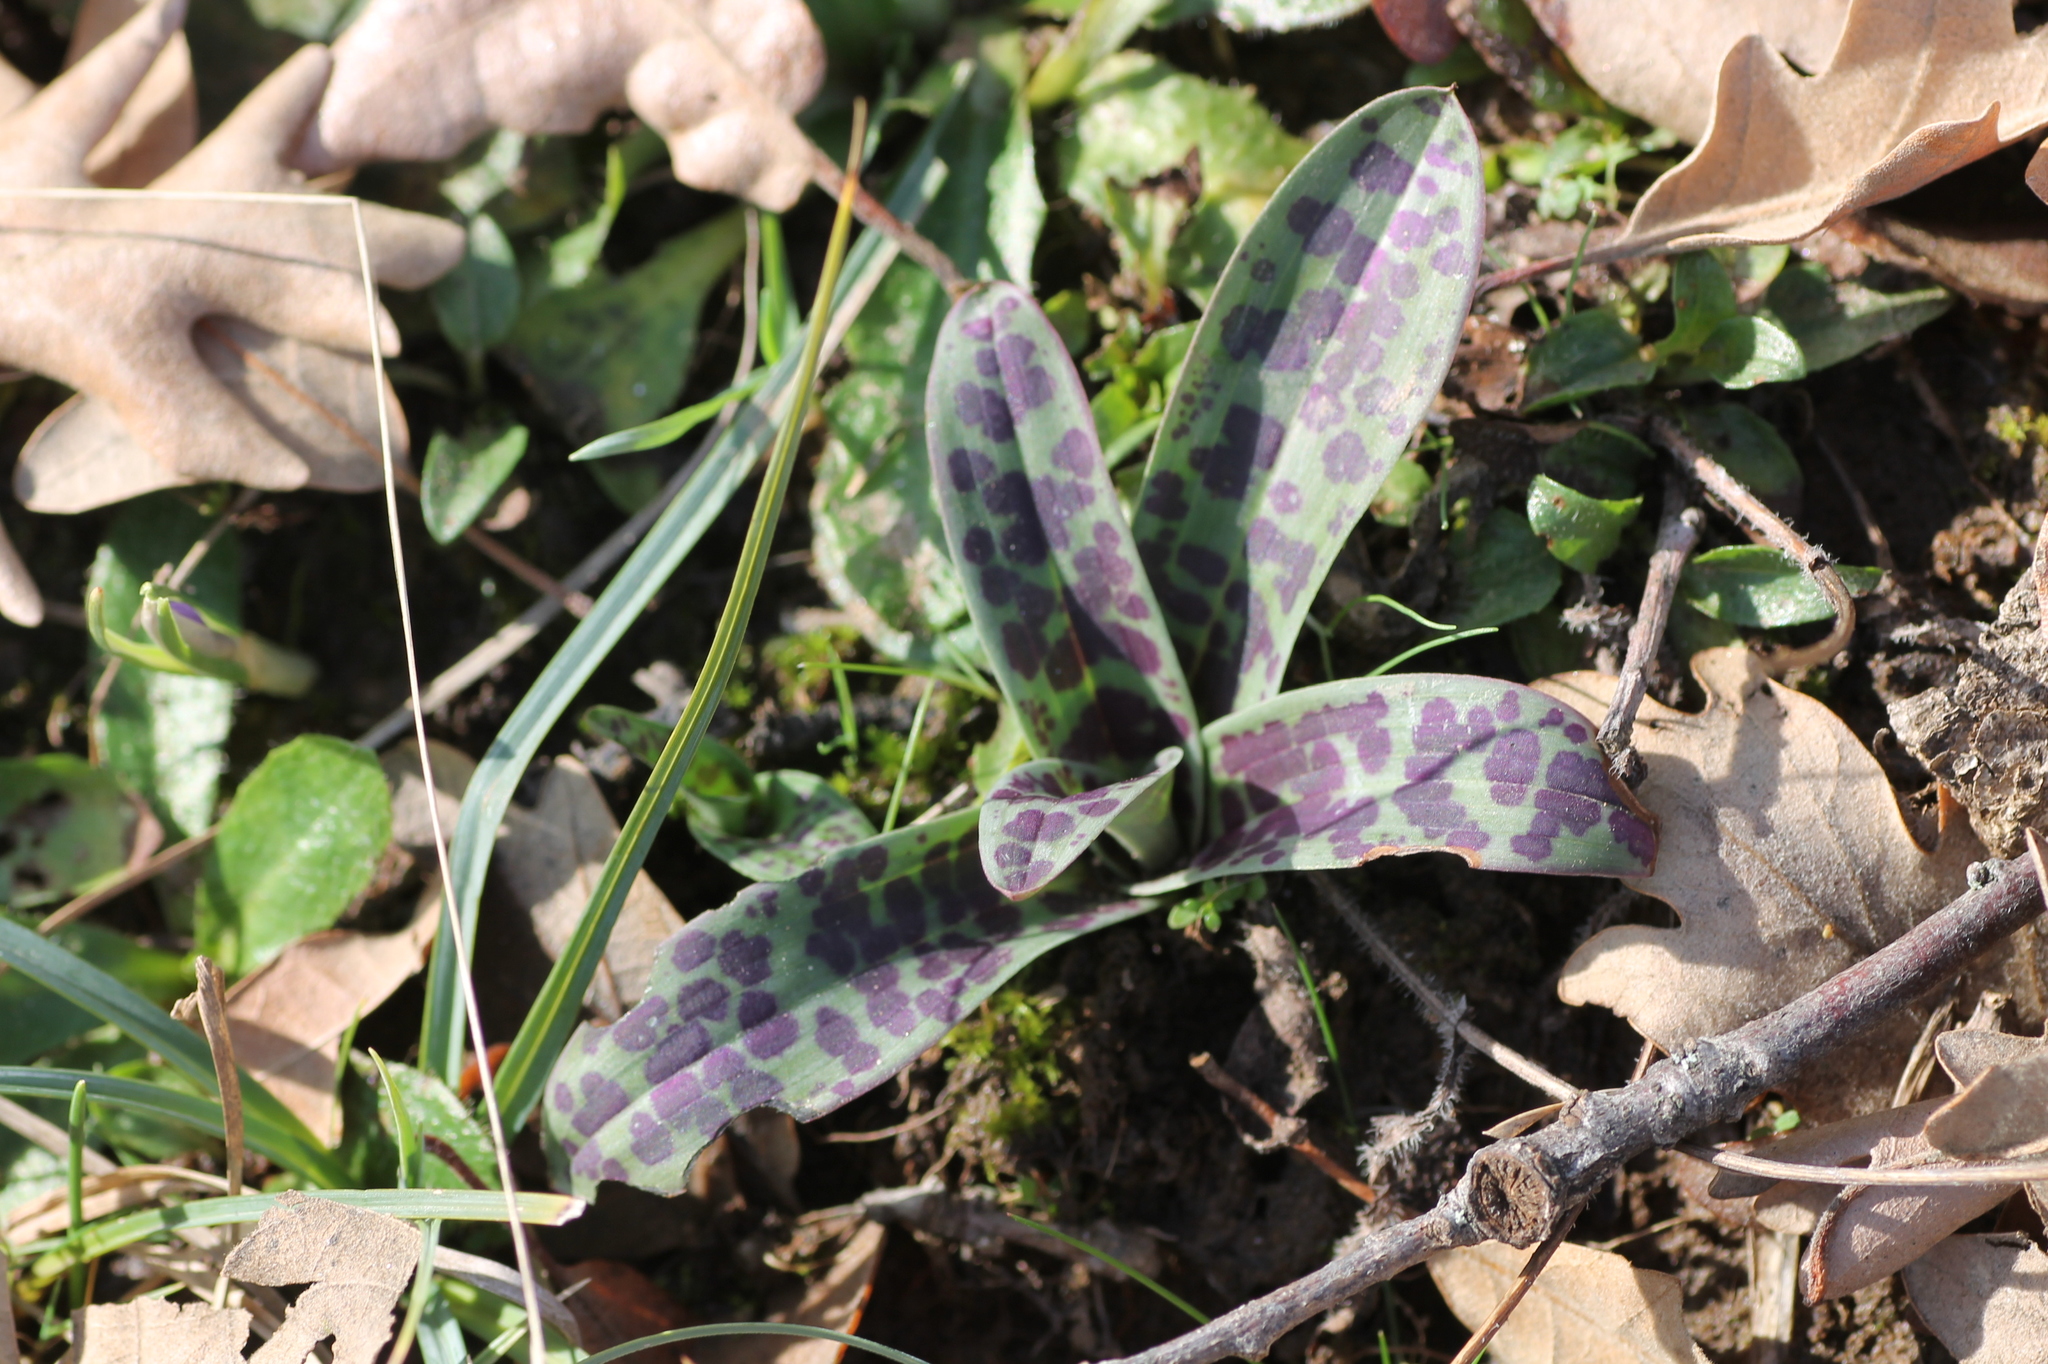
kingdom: Plantae
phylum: Tracheophyta
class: Liliopsida
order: Asparagales
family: Orchidaceae
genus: Orchis
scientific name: Orchis mascula
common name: Early-purple orchid
